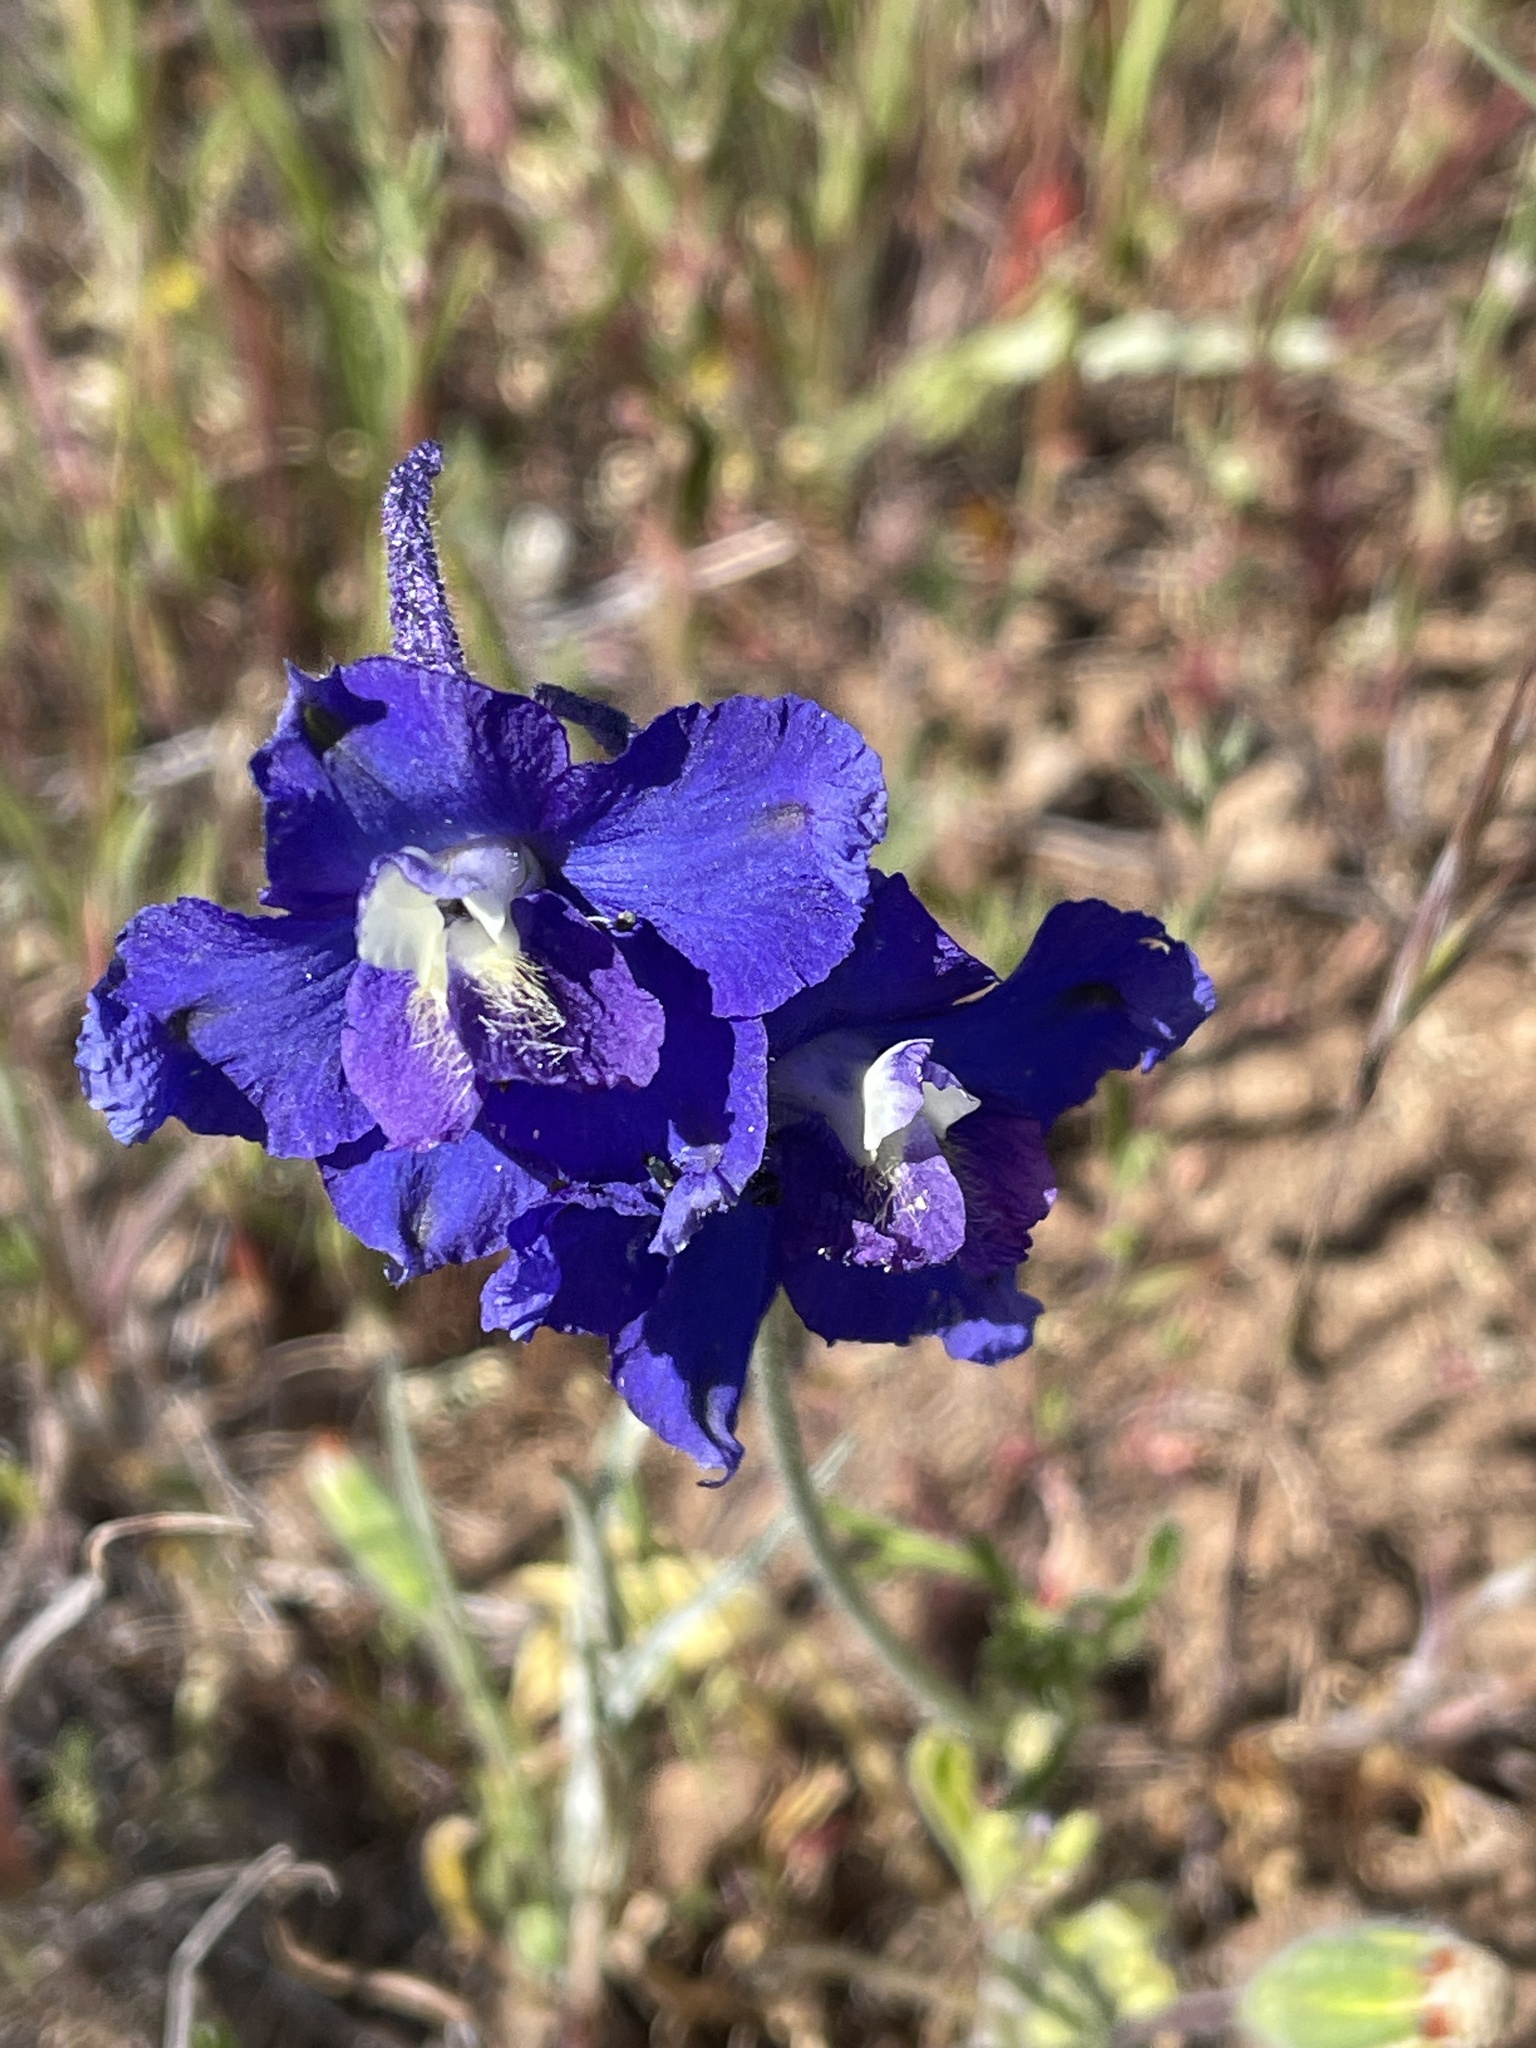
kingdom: Plantae
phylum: Tracheophyta
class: Magnoliopsida
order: Ranunculales
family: Ranunculaceae
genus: Delphinium
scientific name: Delphinium variegatum
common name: Royal larkspur
